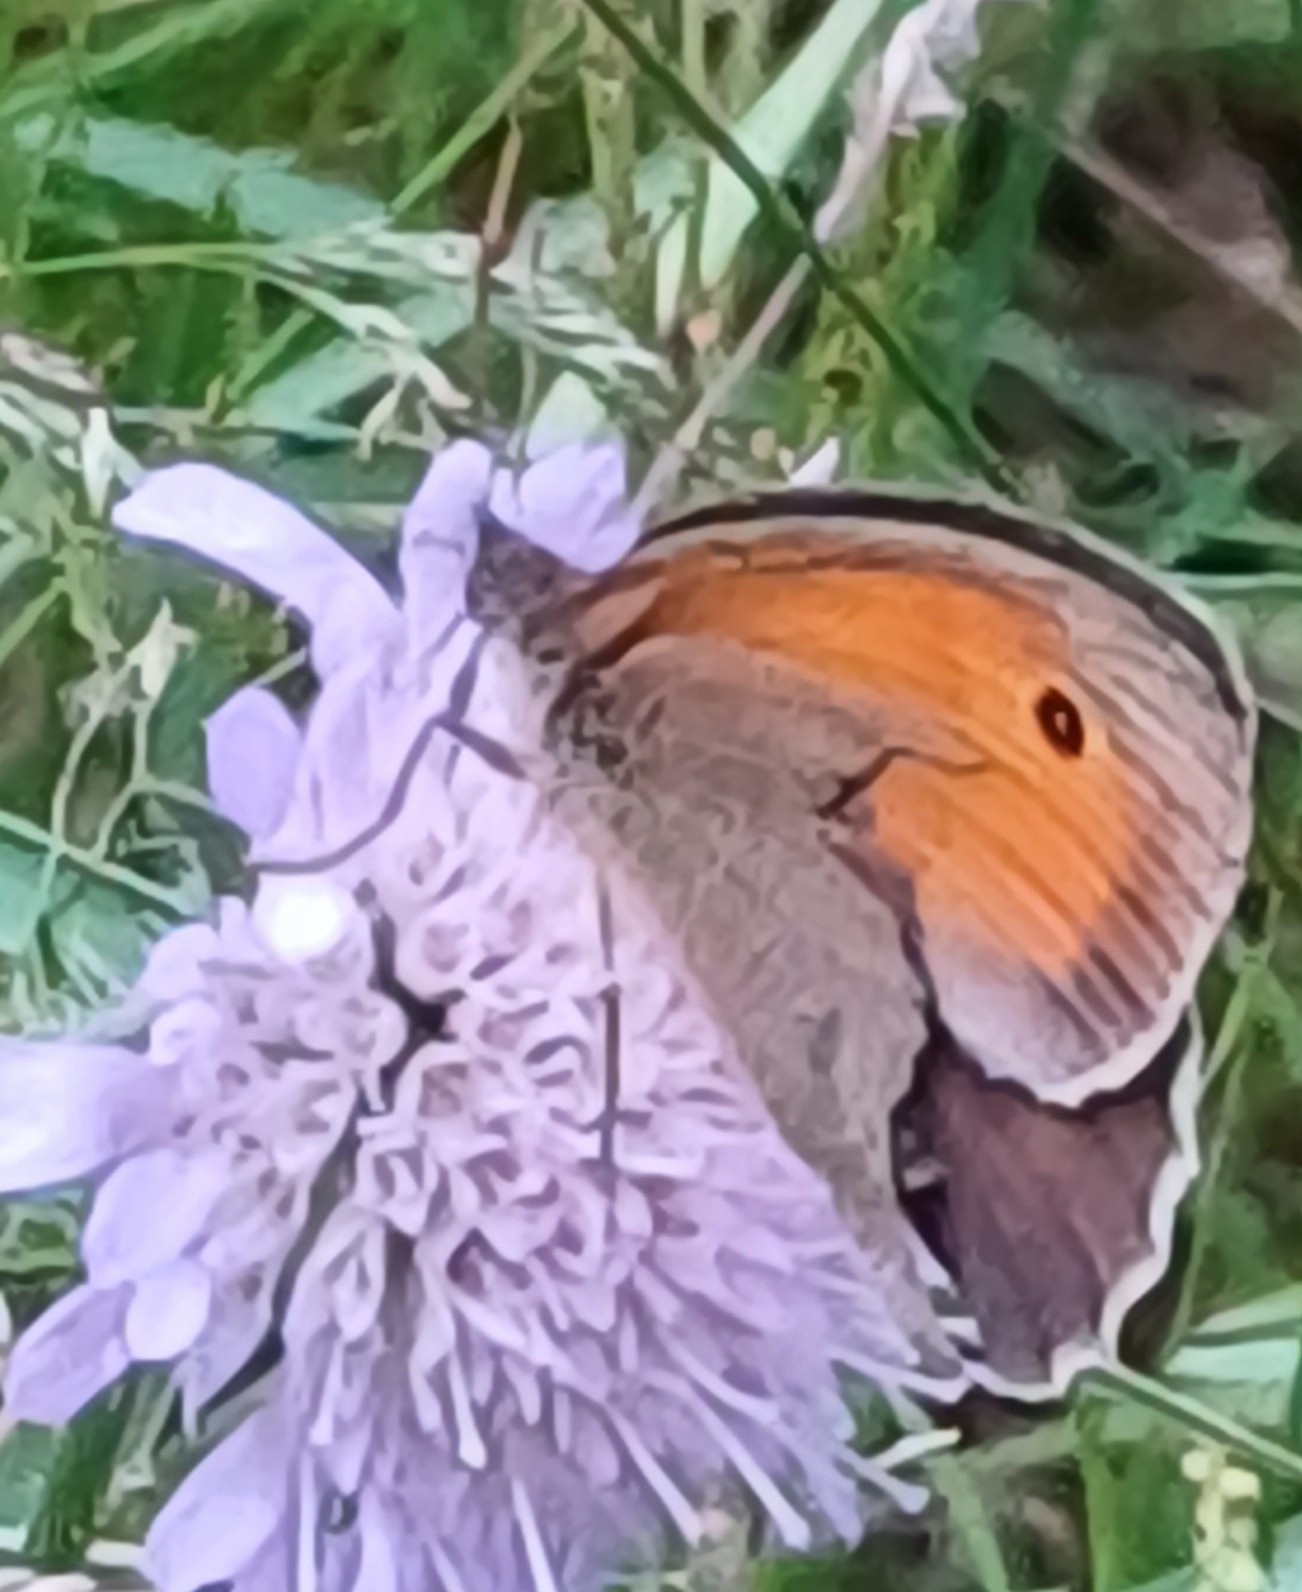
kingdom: Animalia
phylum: Arthropoda
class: Insecta
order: Lepidoptera
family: Nymphalidae
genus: Maniola
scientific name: Maniola jurtina
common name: Meadow brown
